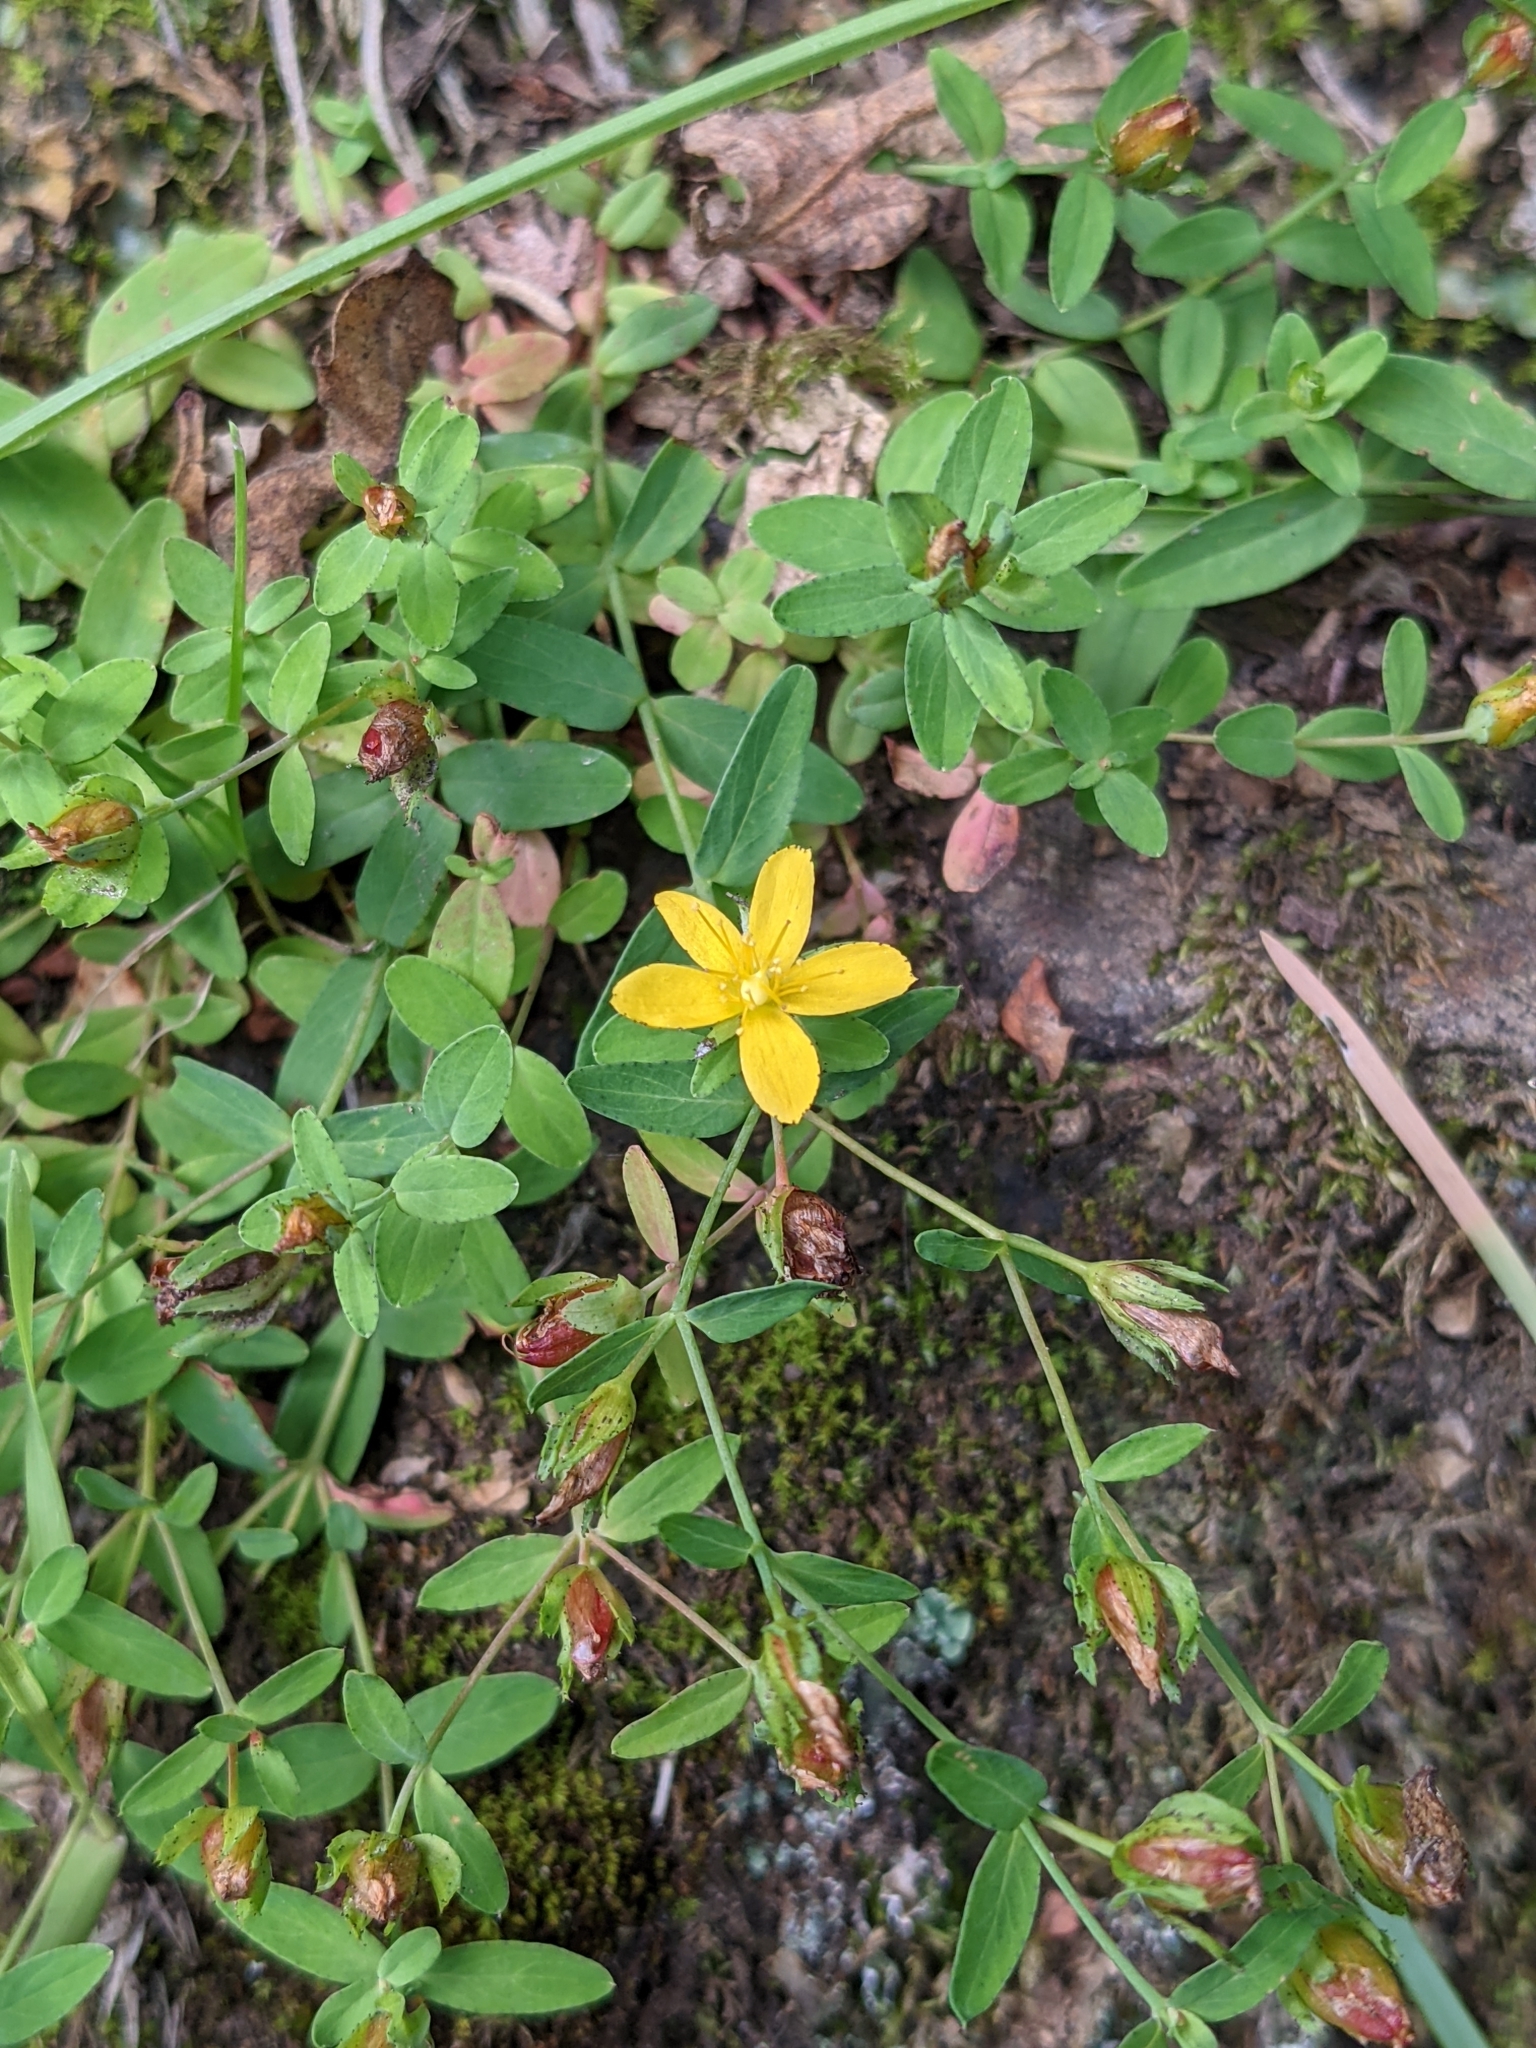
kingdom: Plantae
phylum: Tracheophyta
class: Magnoliopsida
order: Malpighiales
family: Hypericaceae
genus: Hypericum
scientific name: Hypericum humifusum
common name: Trailing st. john's-wort
